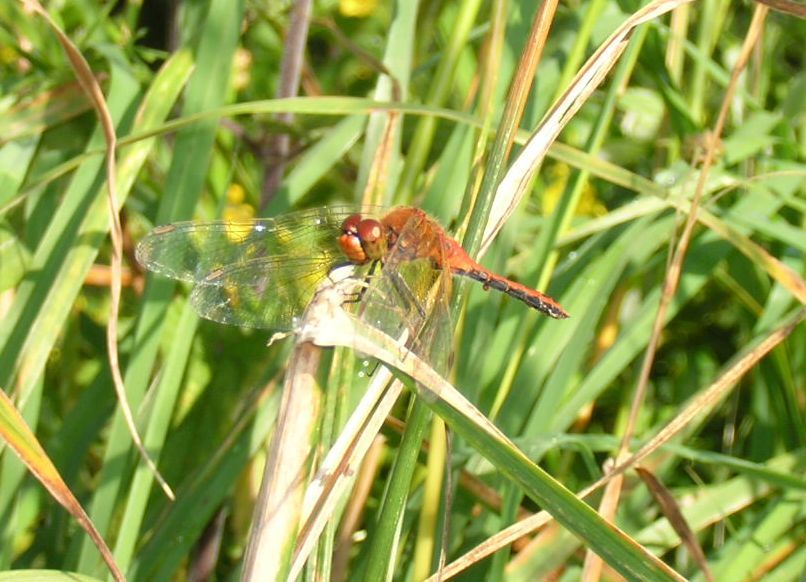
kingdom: Animalia
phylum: Arthropoda
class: Insecta
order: Odonata
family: Libellulidae
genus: Sympetrum
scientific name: Sympetrum flaveolum
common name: Yellow-winged darter
